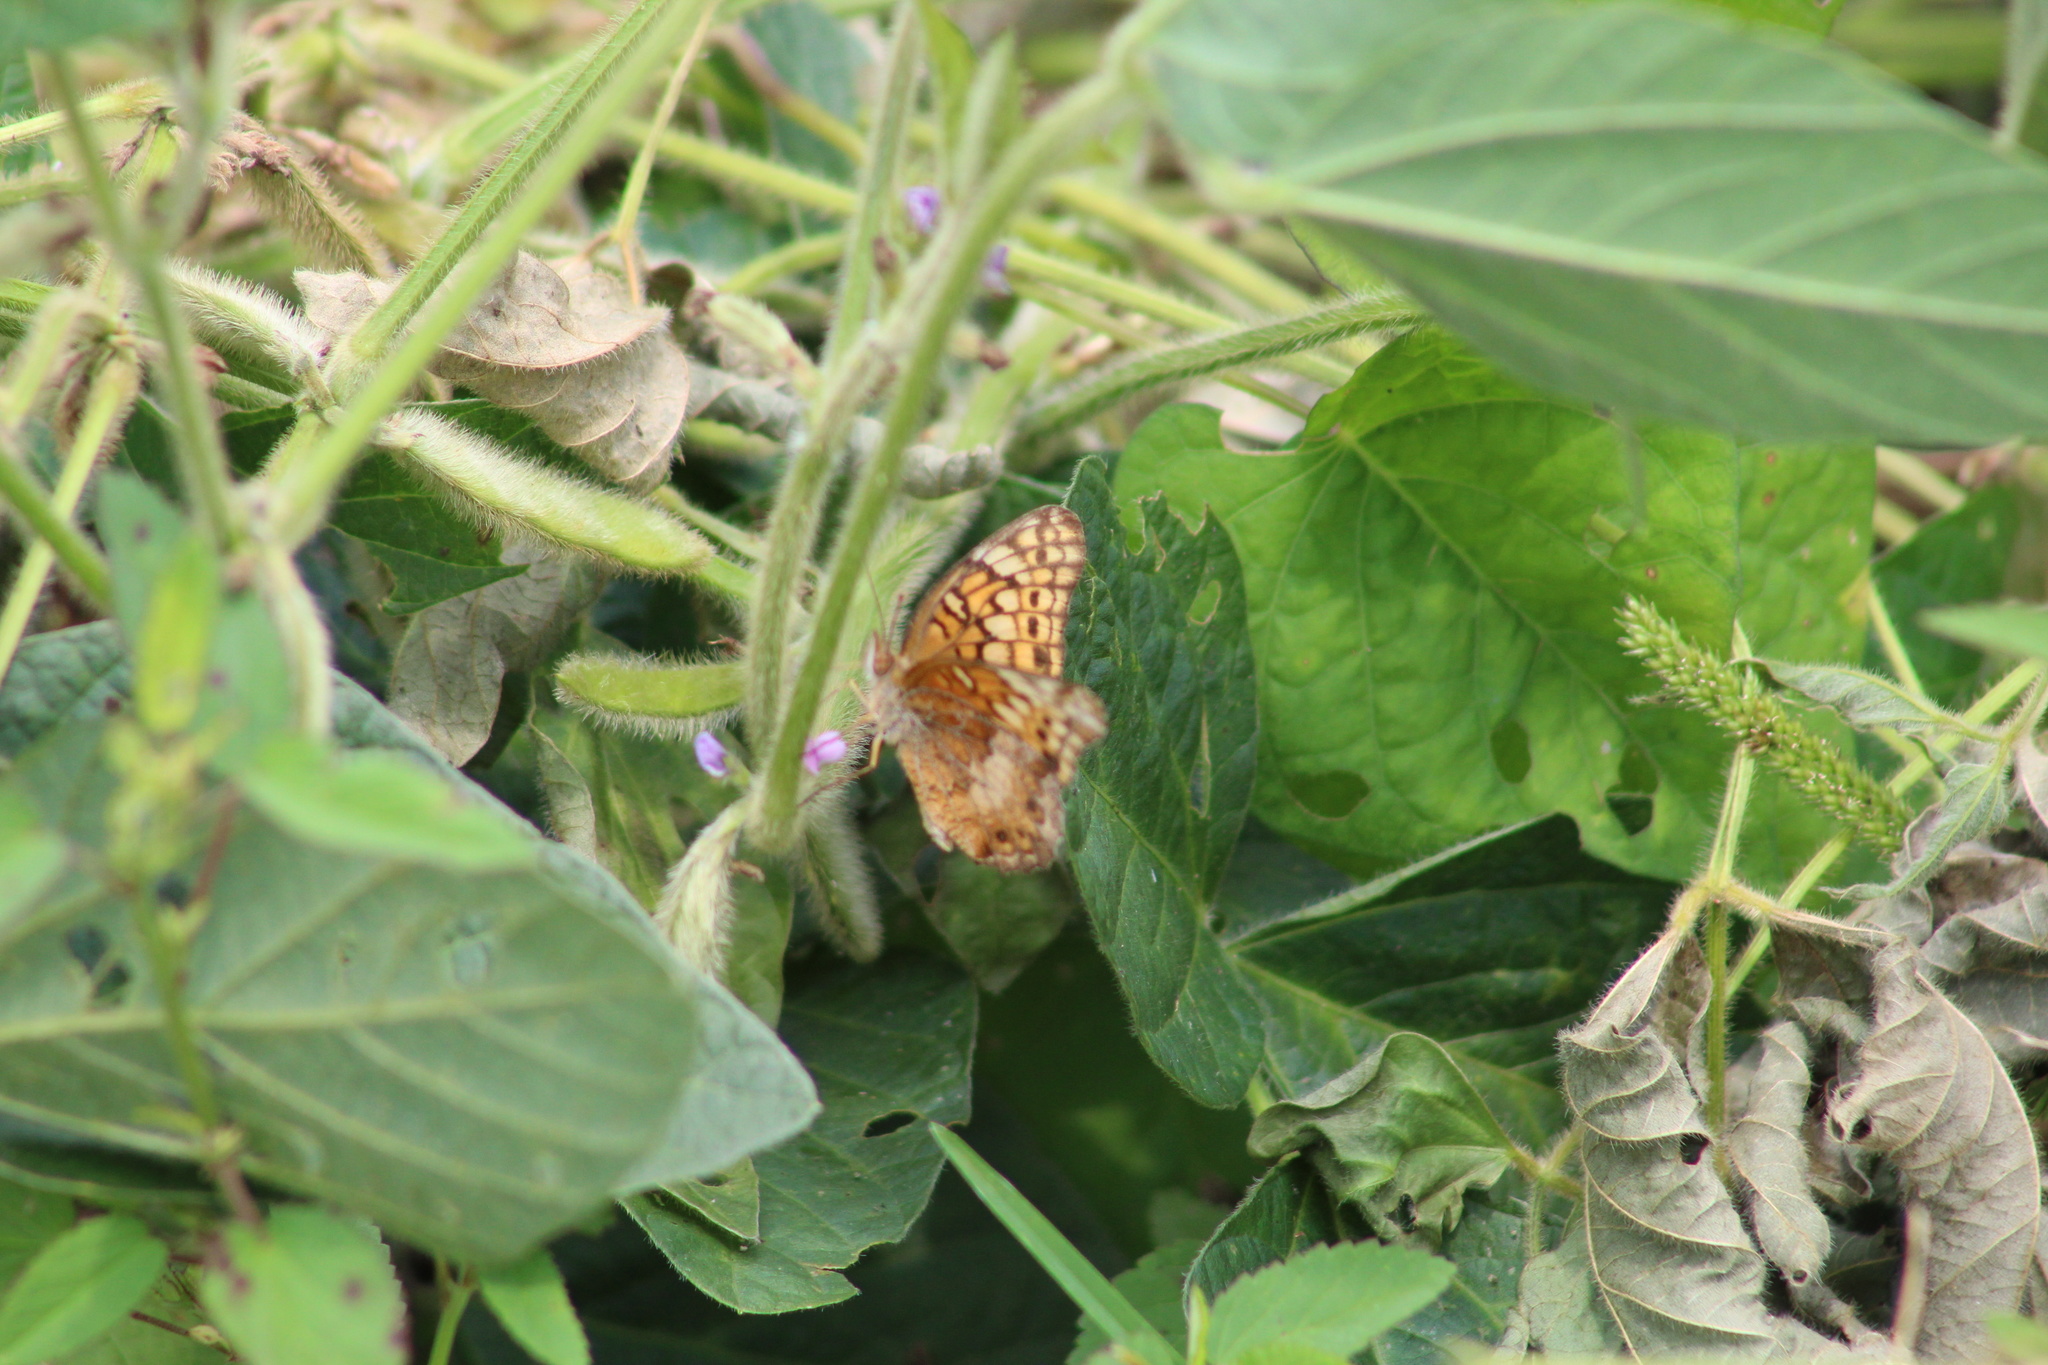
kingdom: Animalia
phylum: Arthropoda
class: Insecta
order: Lepidoptera
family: Nymphalidae
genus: Euptoieta
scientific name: Euptoieta claudia
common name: Variegated fritillary
